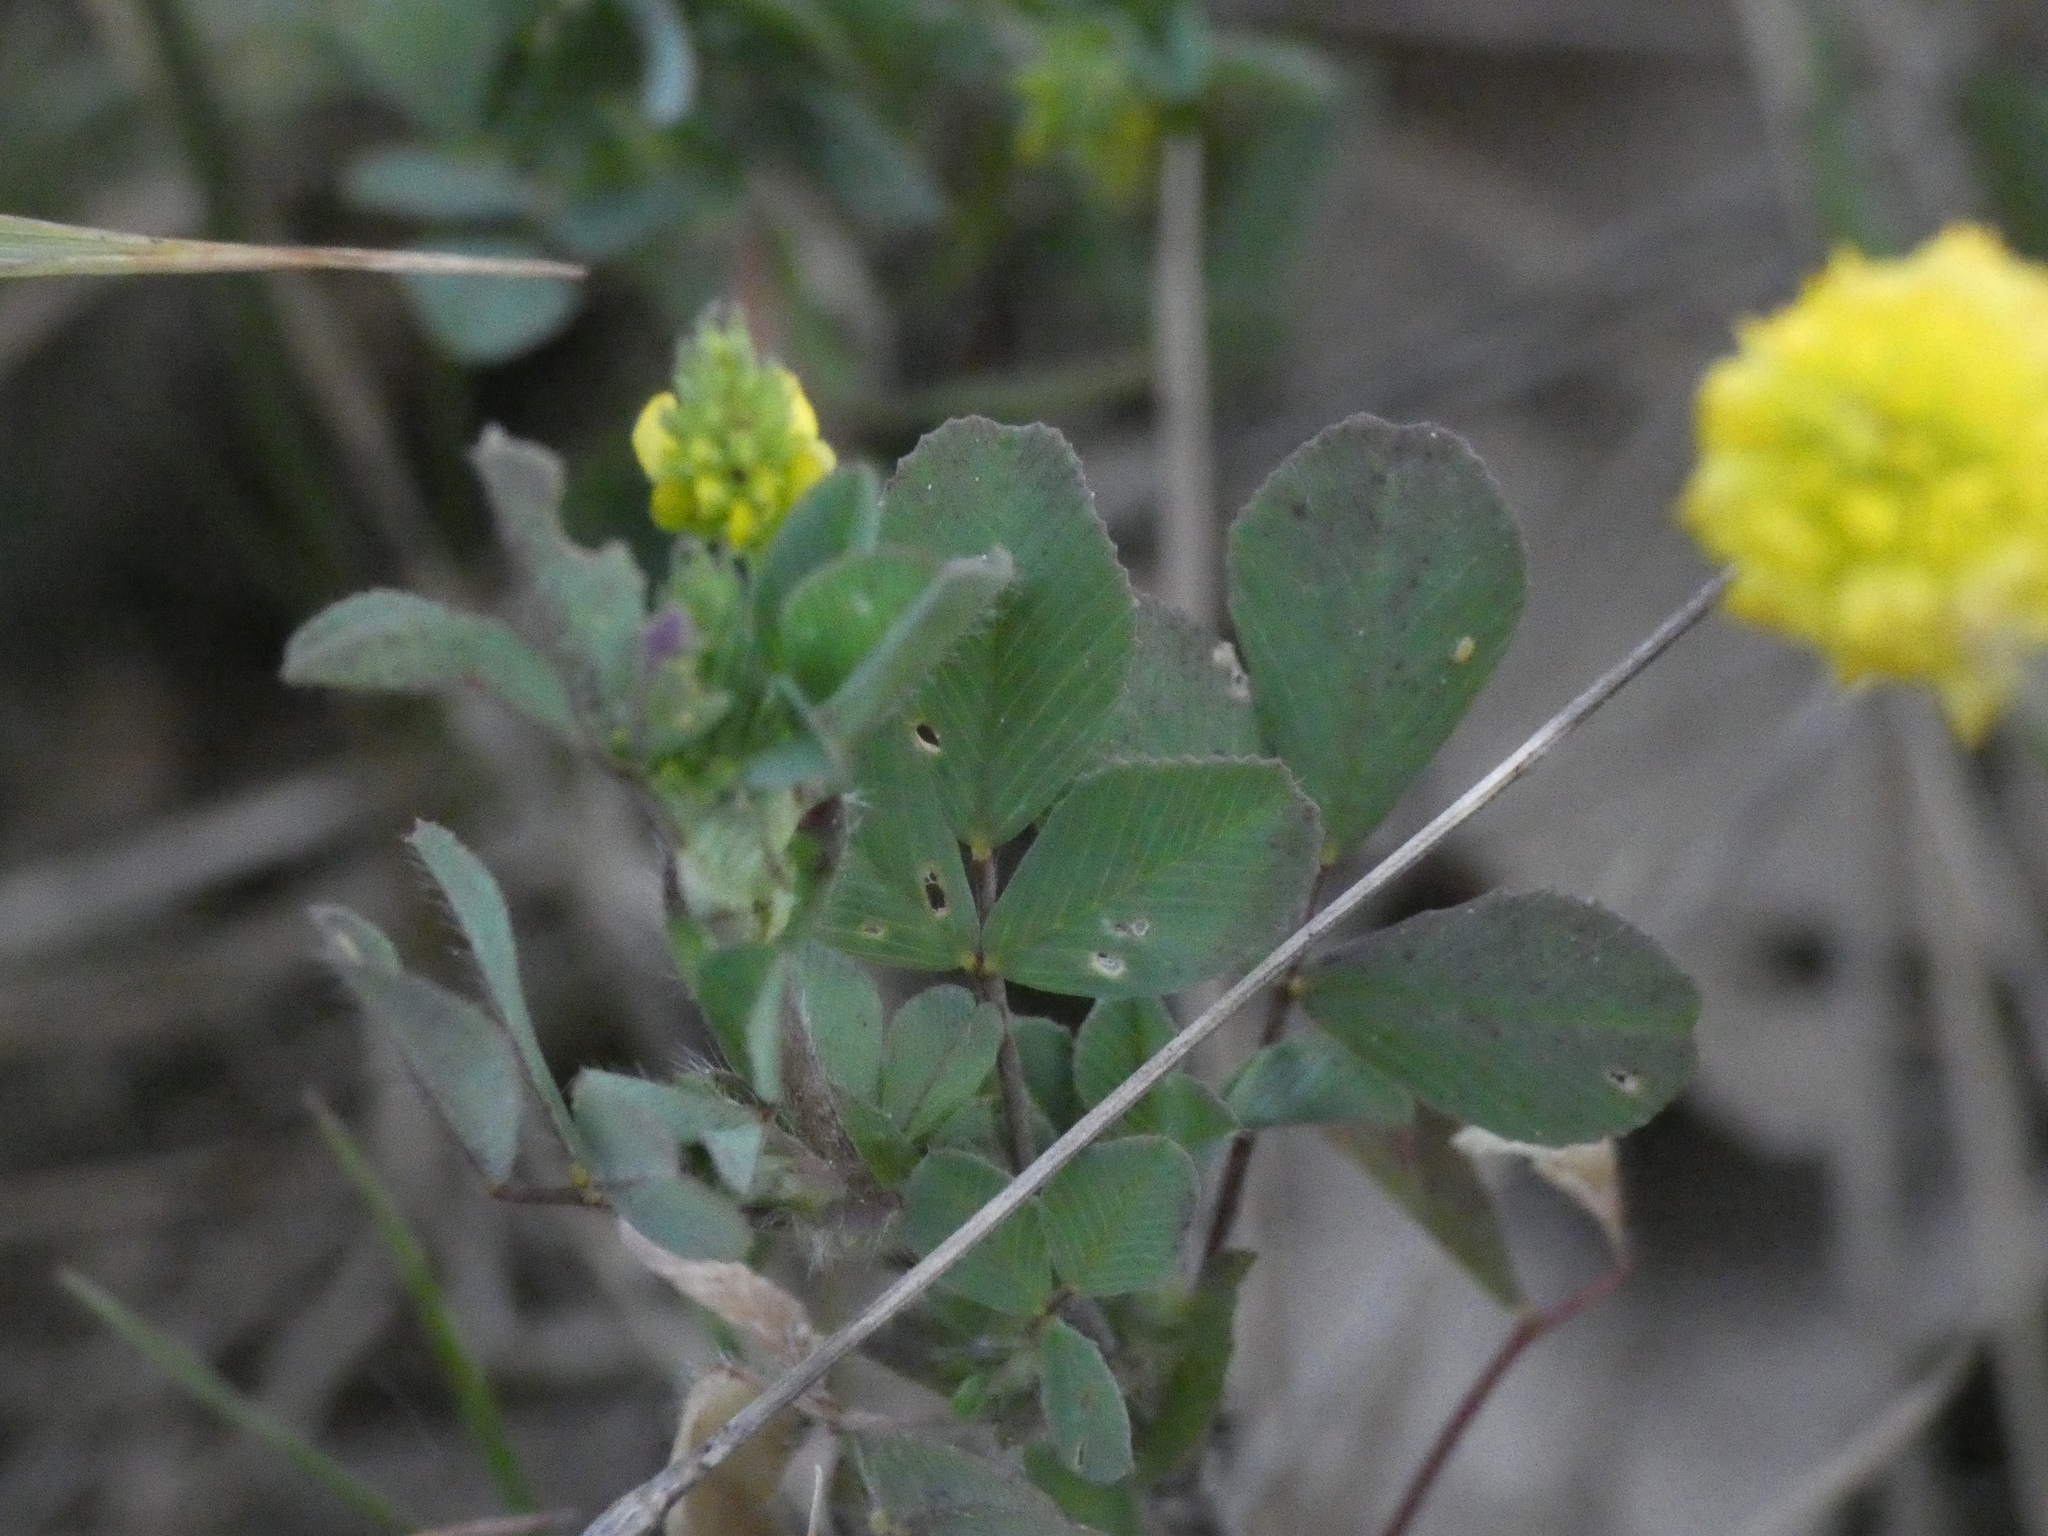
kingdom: Plantae
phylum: Tracheophyta
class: Magnoliopsida
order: Fabales
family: Fabaceae
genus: Trifolium
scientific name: Trifolium campestre
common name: Field clover
